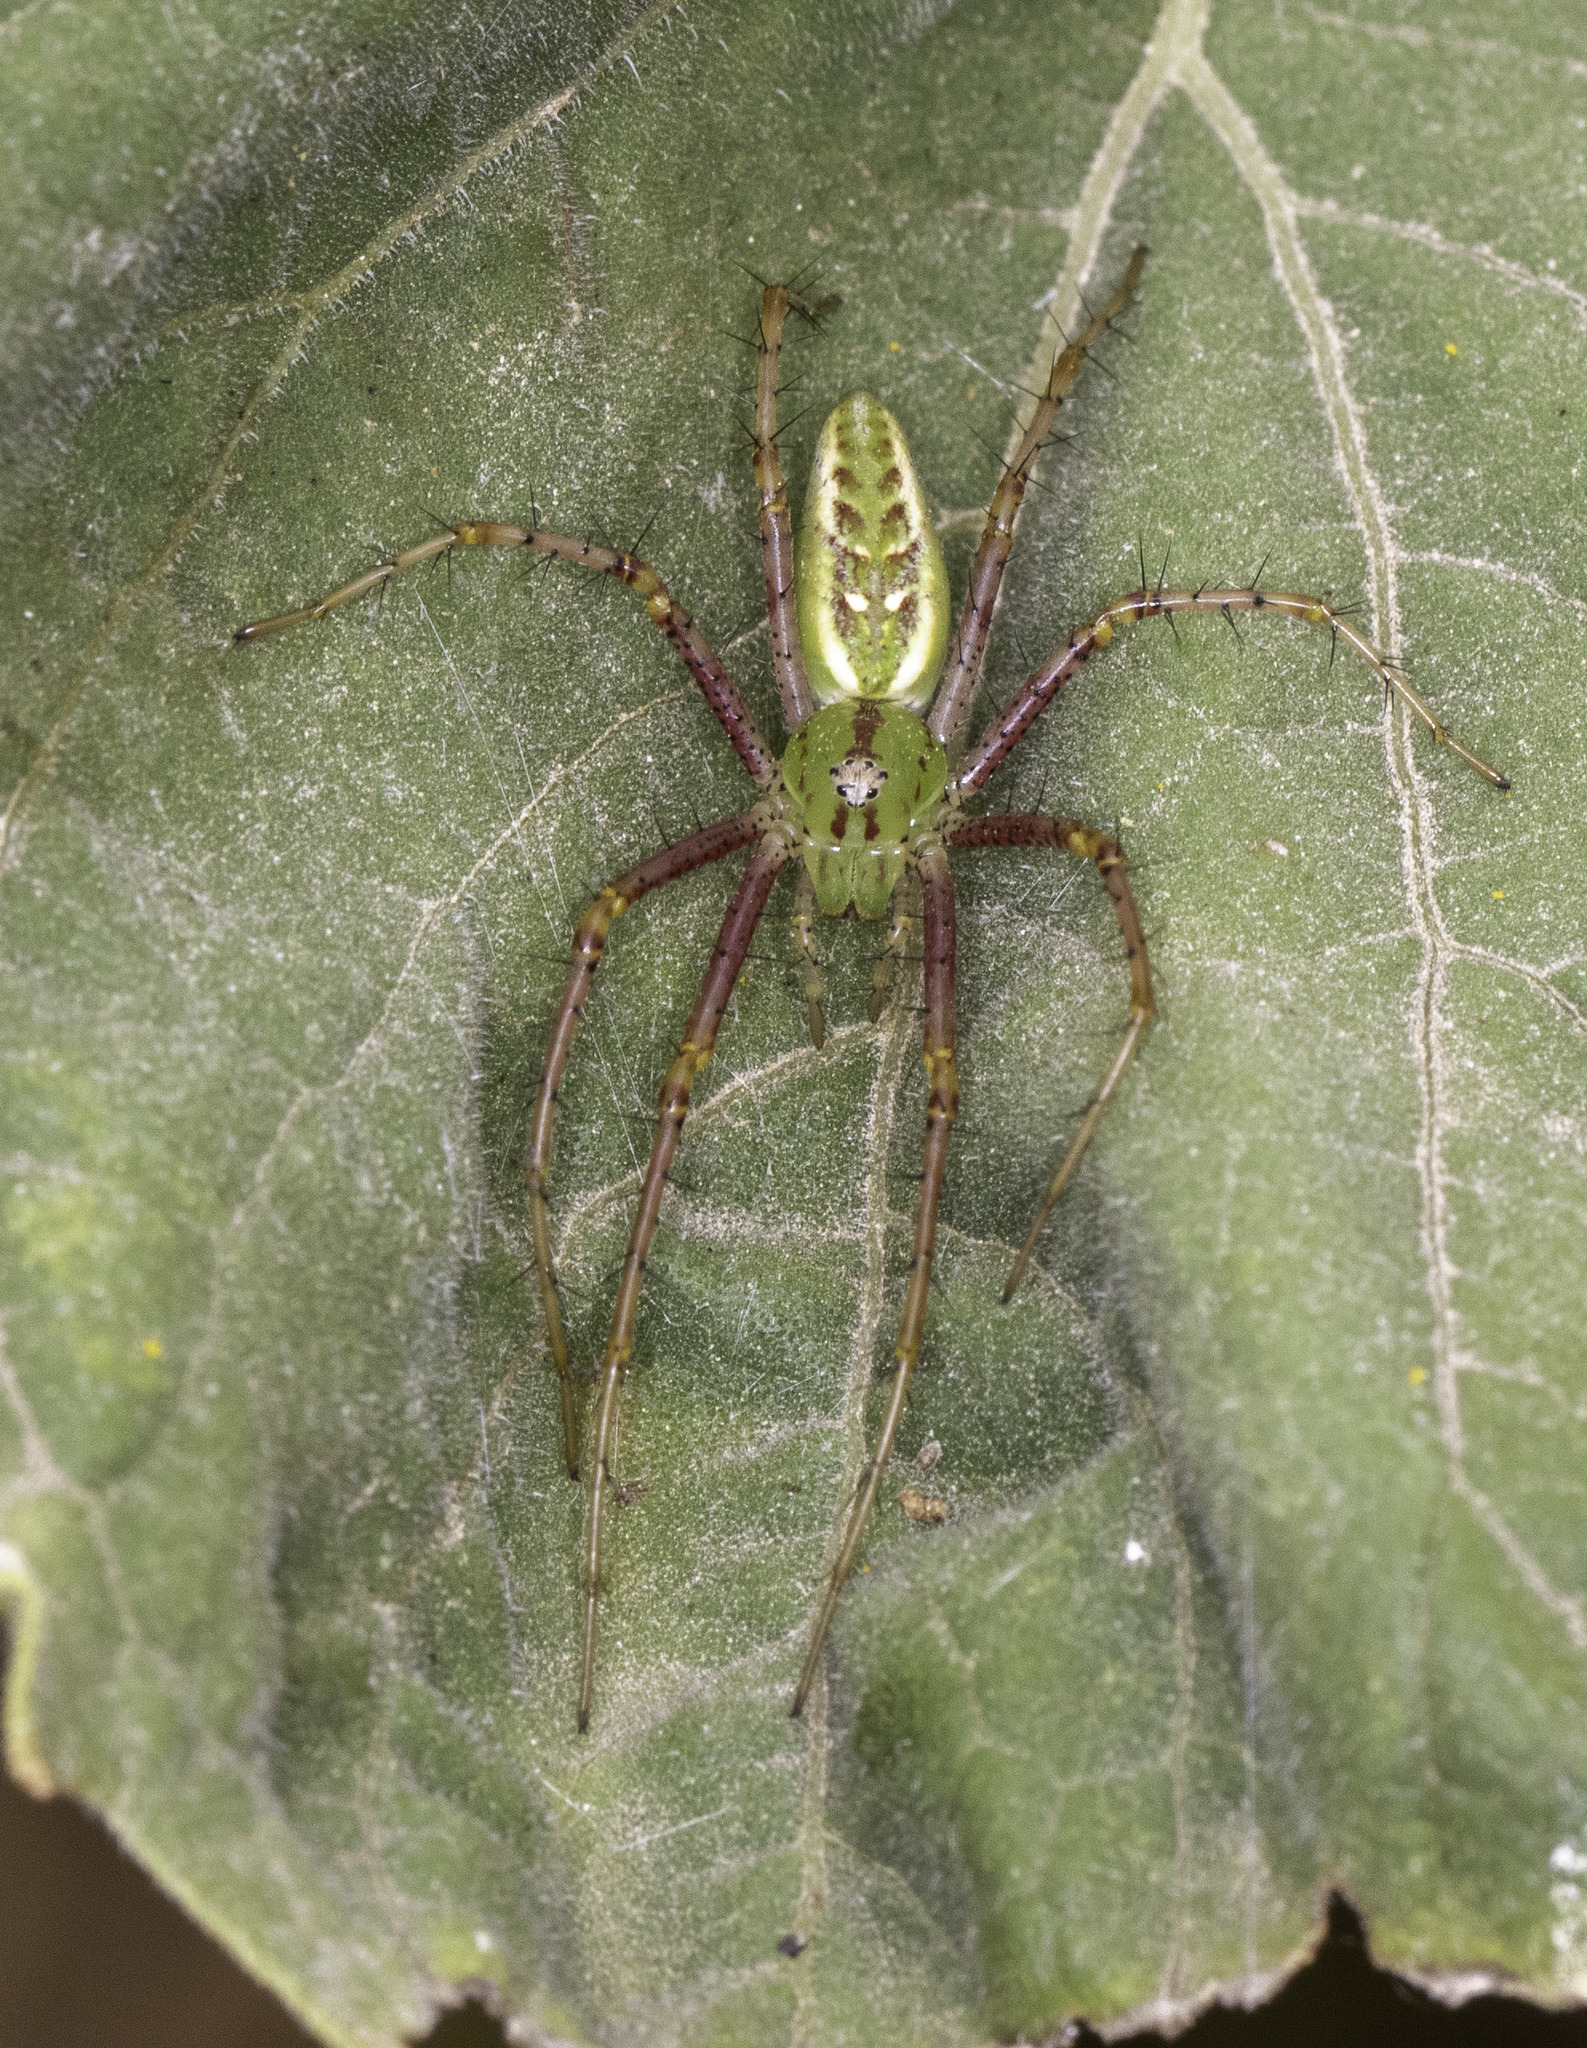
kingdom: Animalia
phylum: Arthropoda
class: Arachnida
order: Araneae
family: Oxyopidae
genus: Peucetia
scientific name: Peucetia viridans
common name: Lynx spiders
